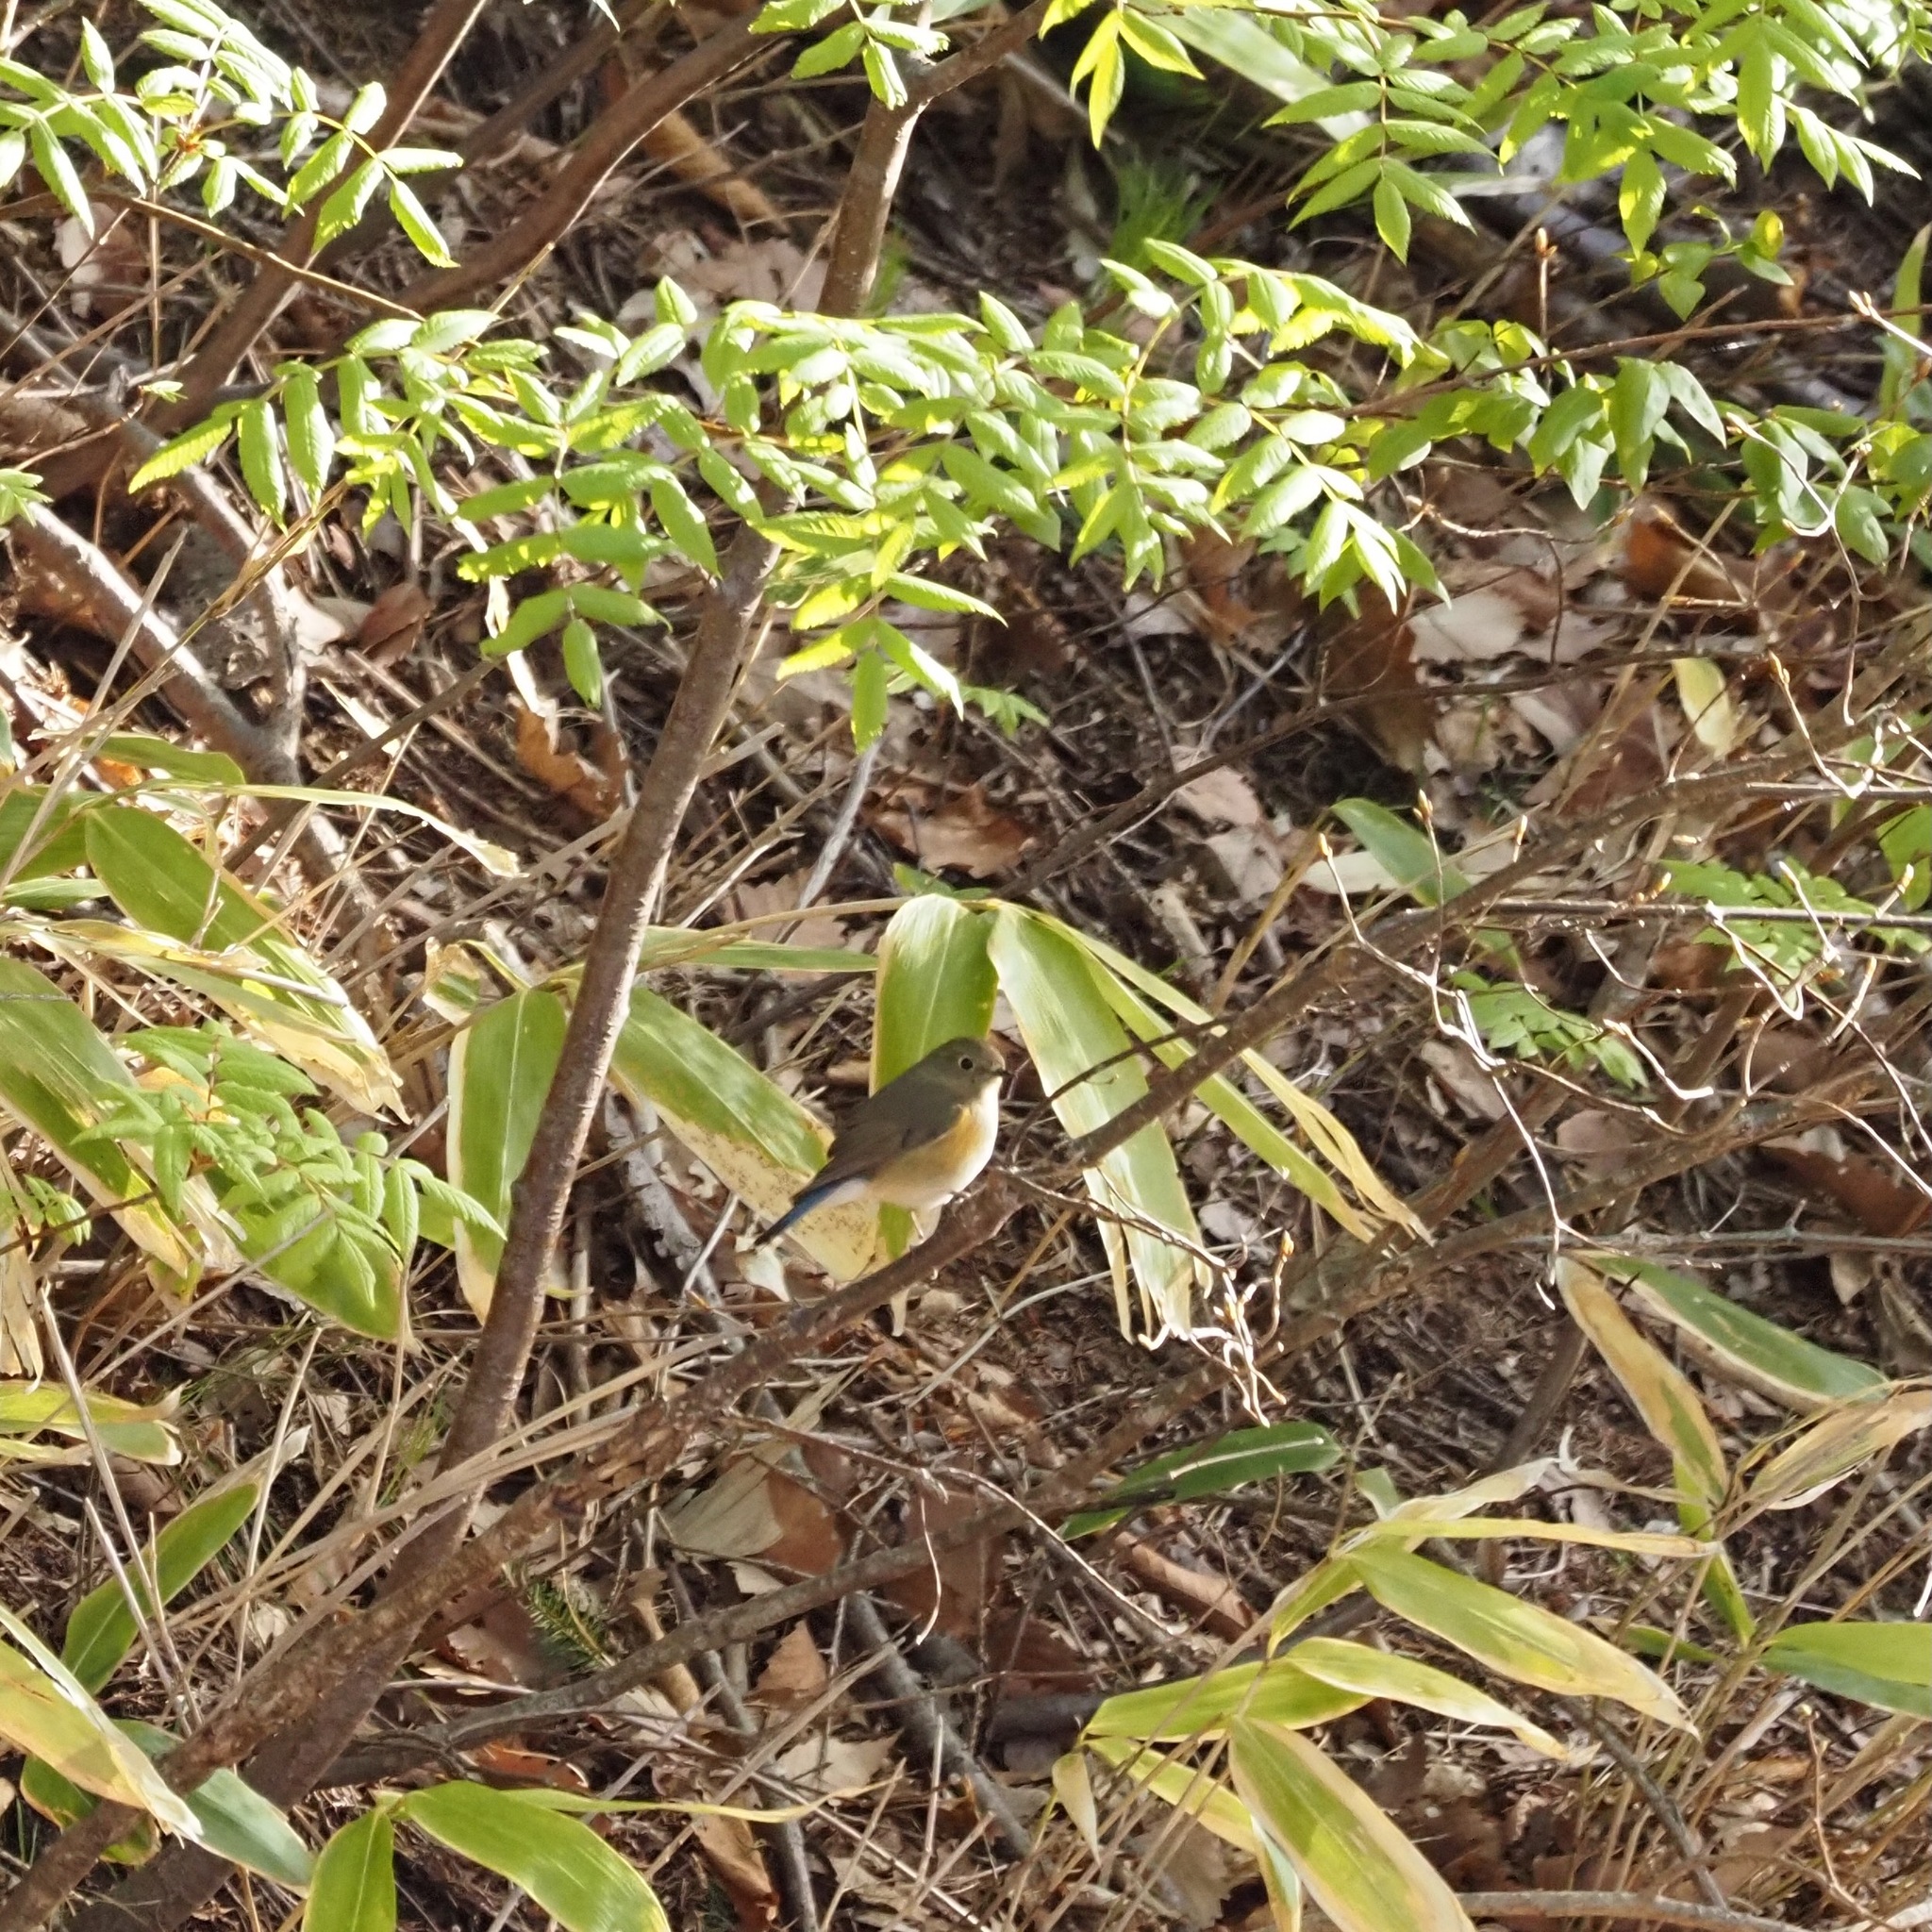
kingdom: Animalia
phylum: Chordata
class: Aves
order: Passeriformes
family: Muscicapidae
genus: Tarsiger
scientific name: Tarsiger cyanurus
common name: Red-flanked bluetail
